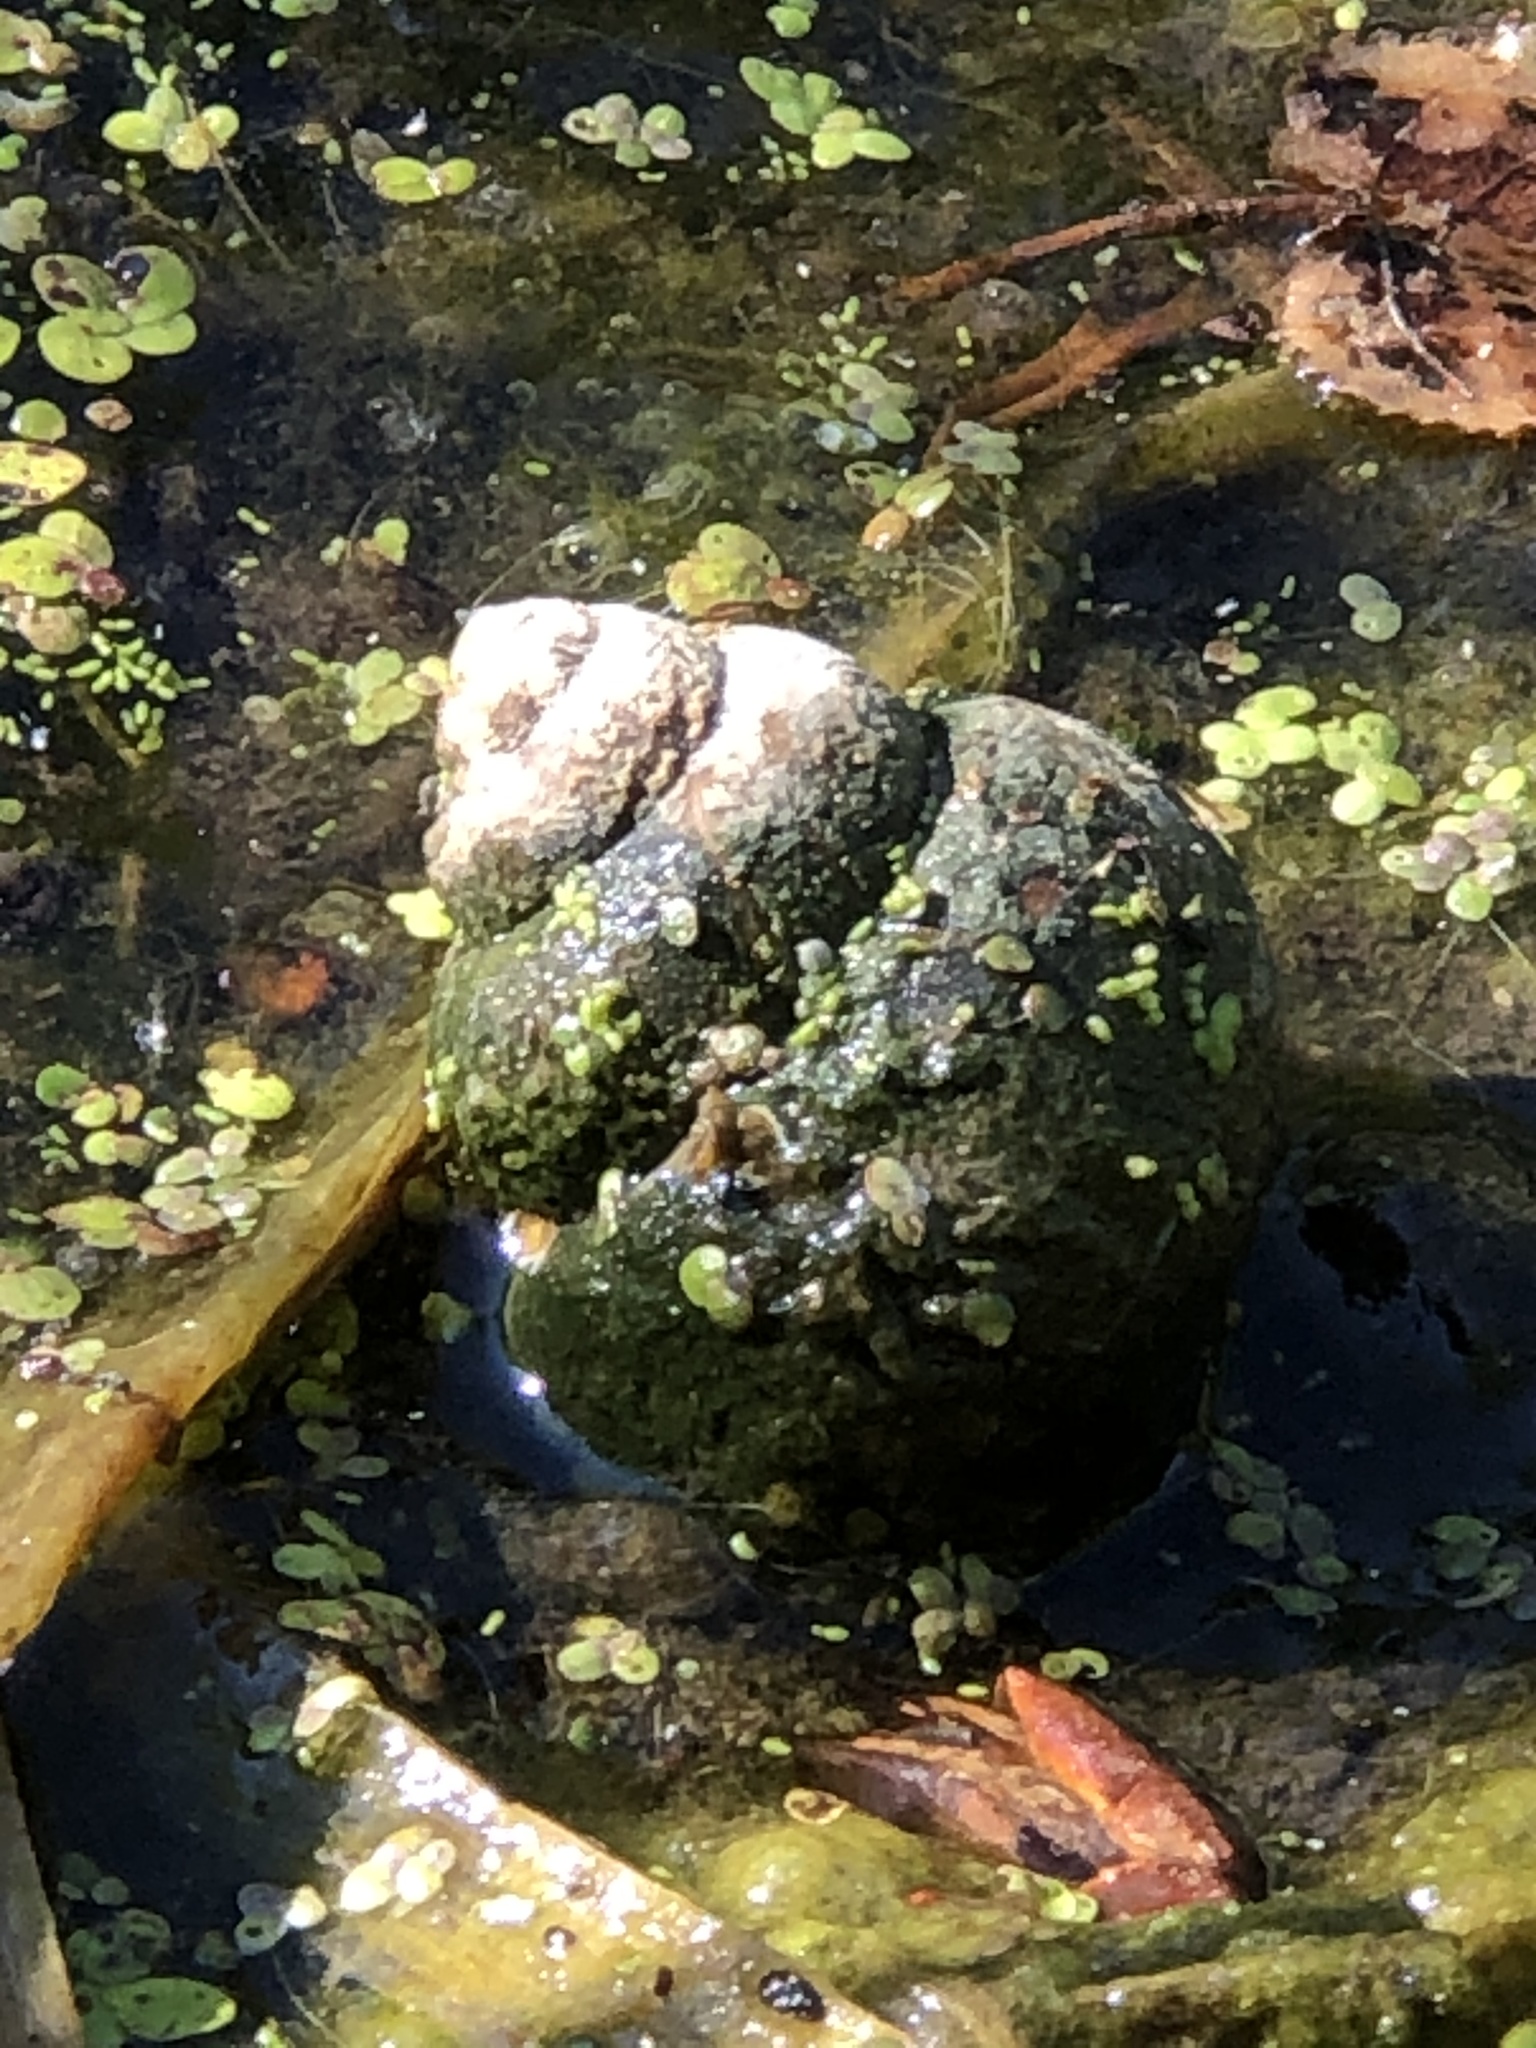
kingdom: Animalia
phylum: Mollusca
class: Gastropoda
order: Architaenioglossa
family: Viviparidae
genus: Cipangopaludina
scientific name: Cipangopaludina chinensis
